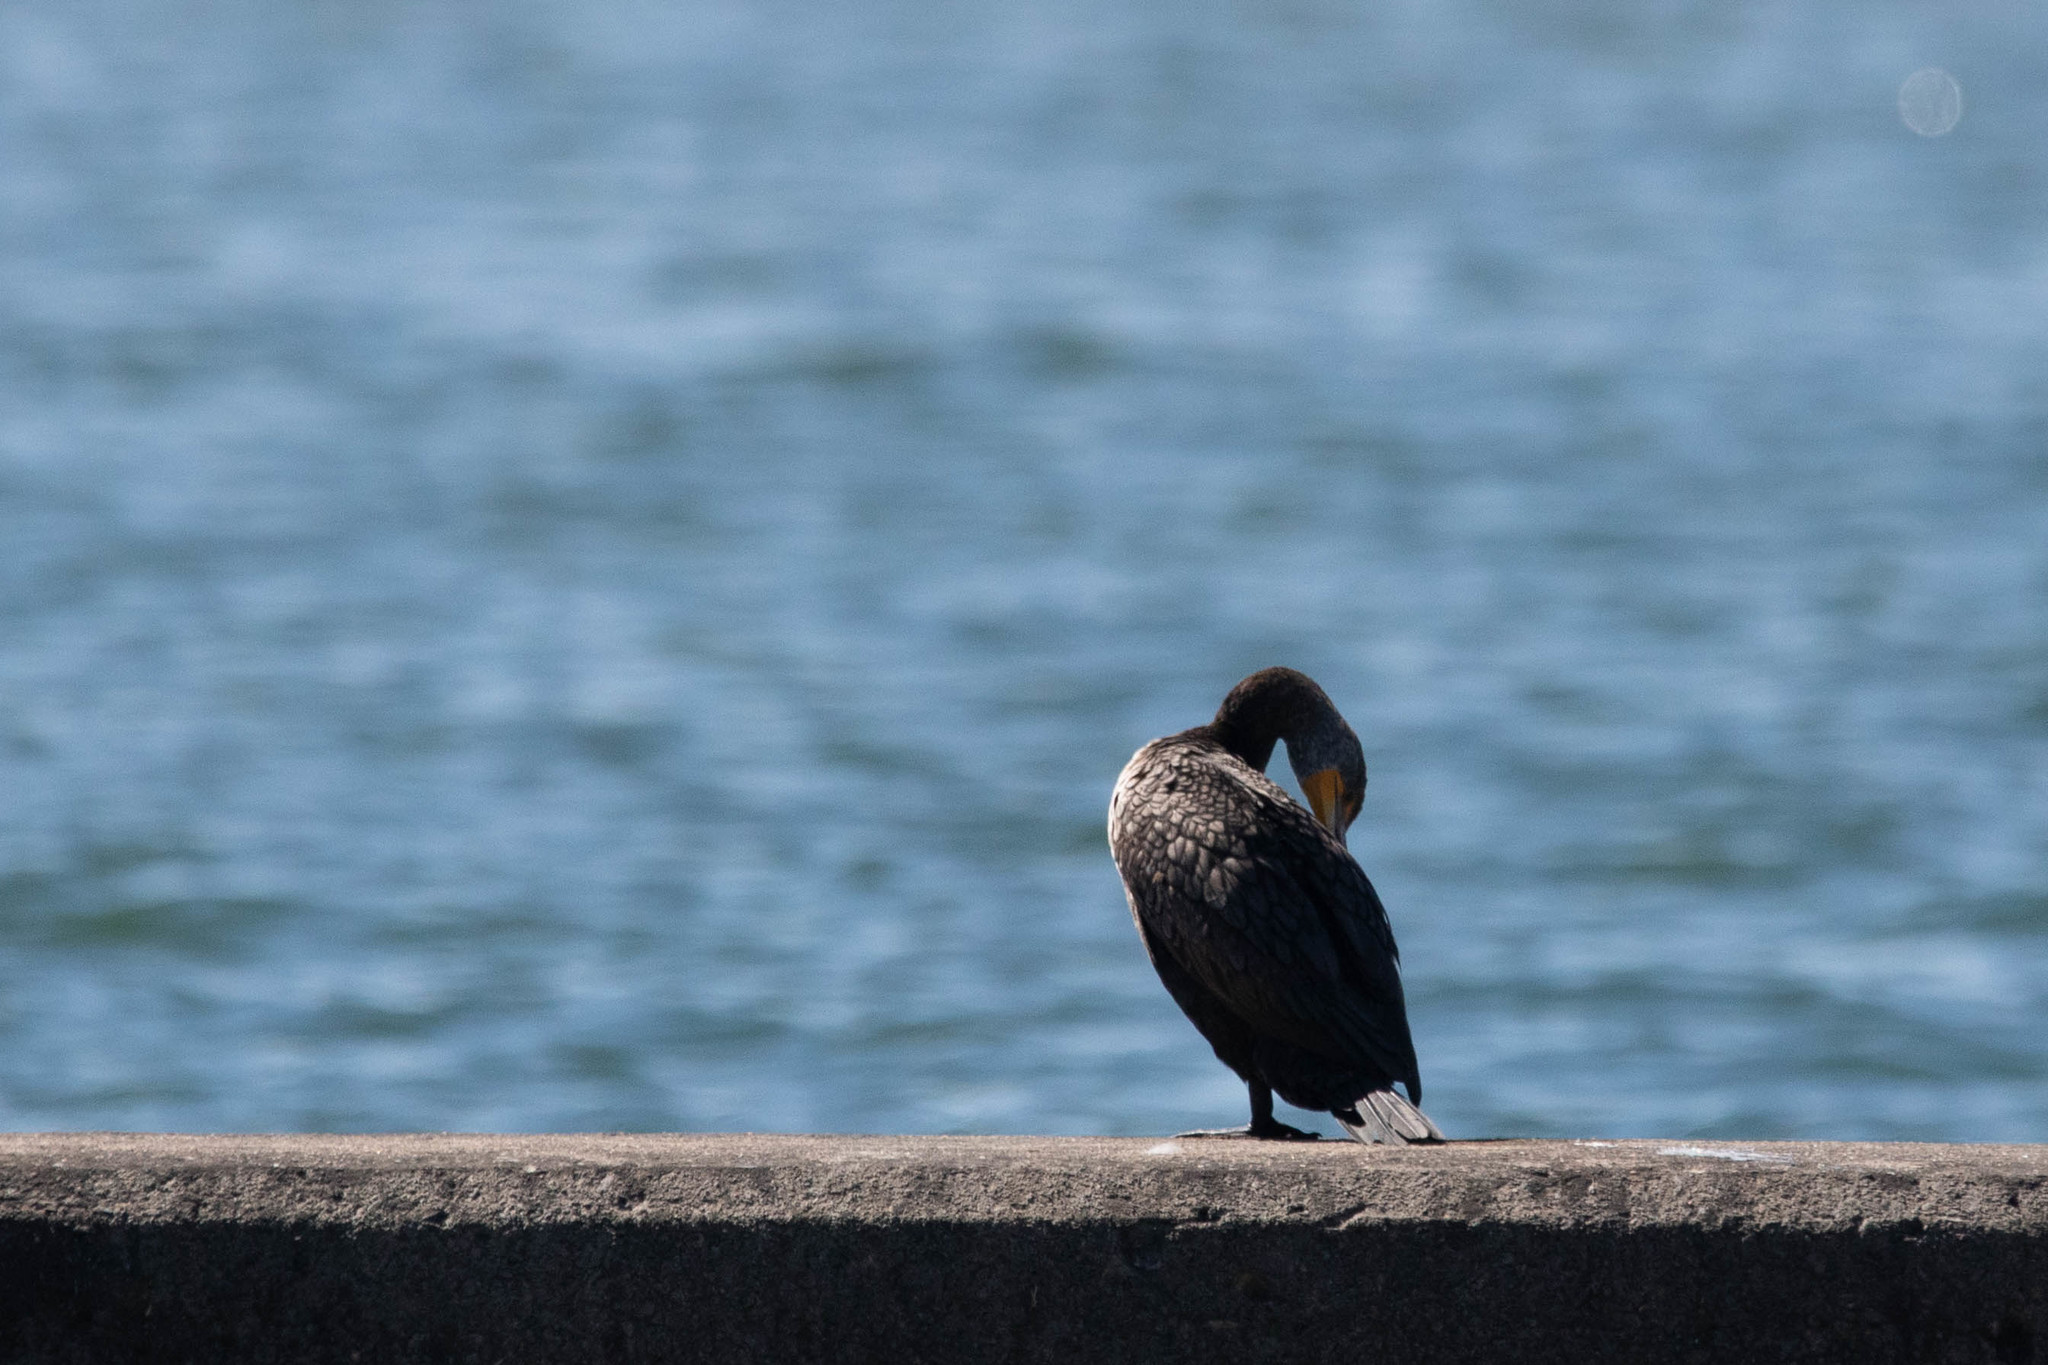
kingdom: Animalia
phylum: Chordata
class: Aves
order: Suliformes
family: Phalacrocoracidae
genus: Phalacrocorax
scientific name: Phalacrocorax auritus
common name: Double-crested cormorant
